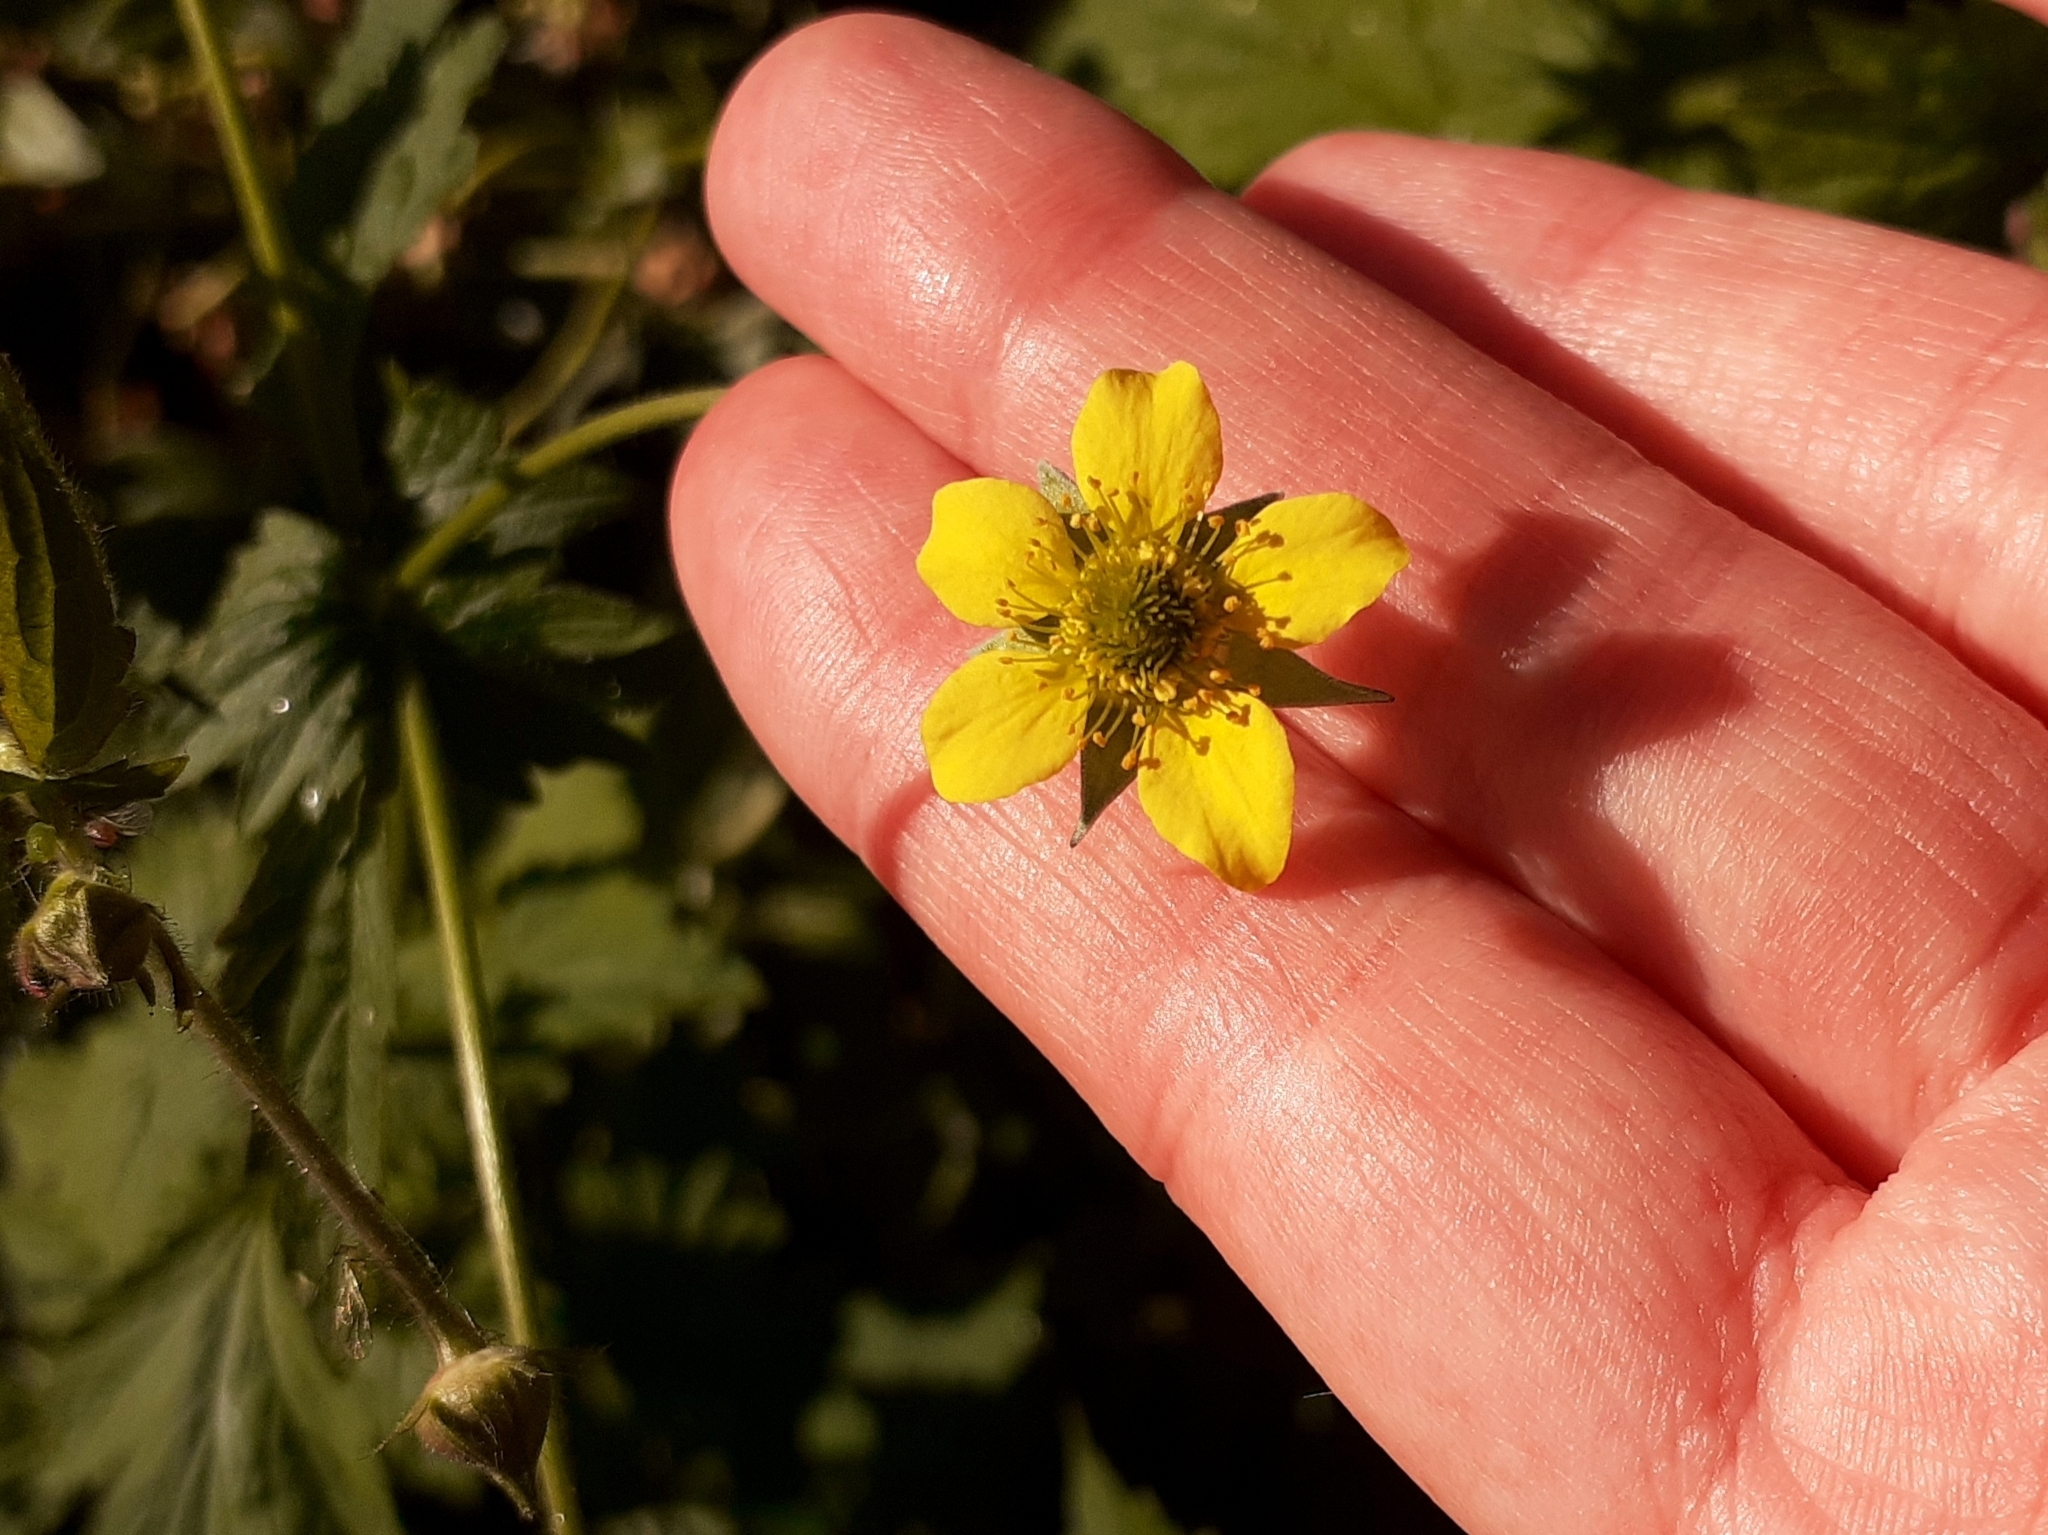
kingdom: Plantae
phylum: Tracheophyta
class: Magnoliopsida
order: Rosales
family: Rosaceae
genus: Geum
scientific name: Geum urbanum
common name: Wood avens
